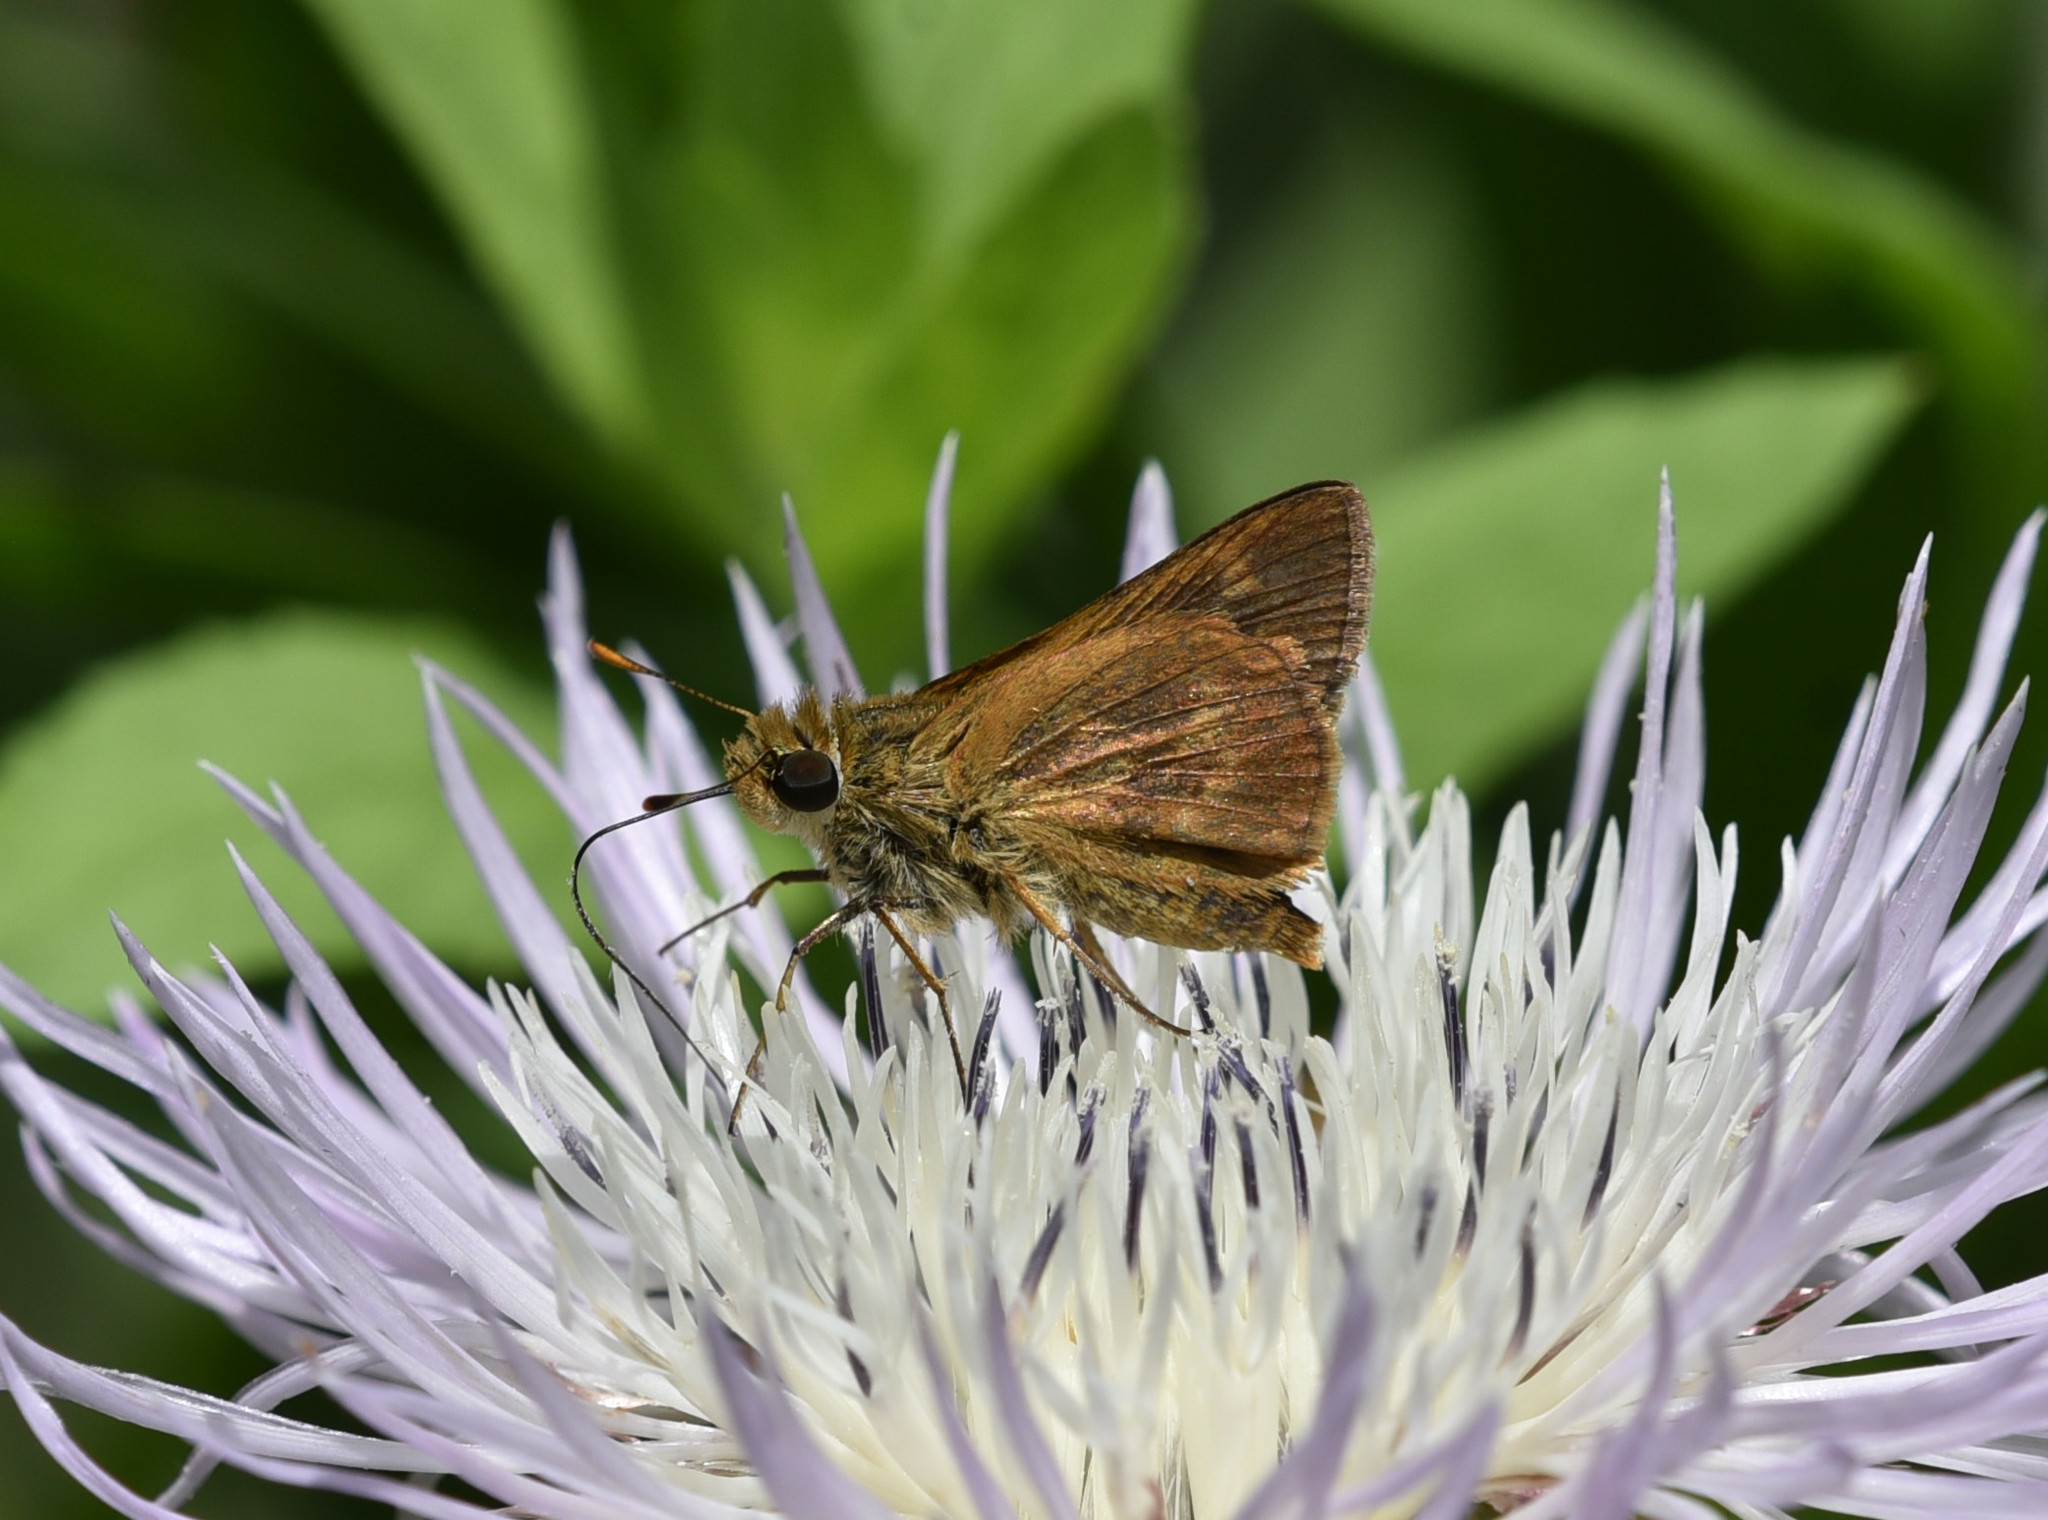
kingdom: Animalia
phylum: Arthropoda
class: Insecta
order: Lepidoptera
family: Hesperiidae
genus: Polites
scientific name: Polites otho
